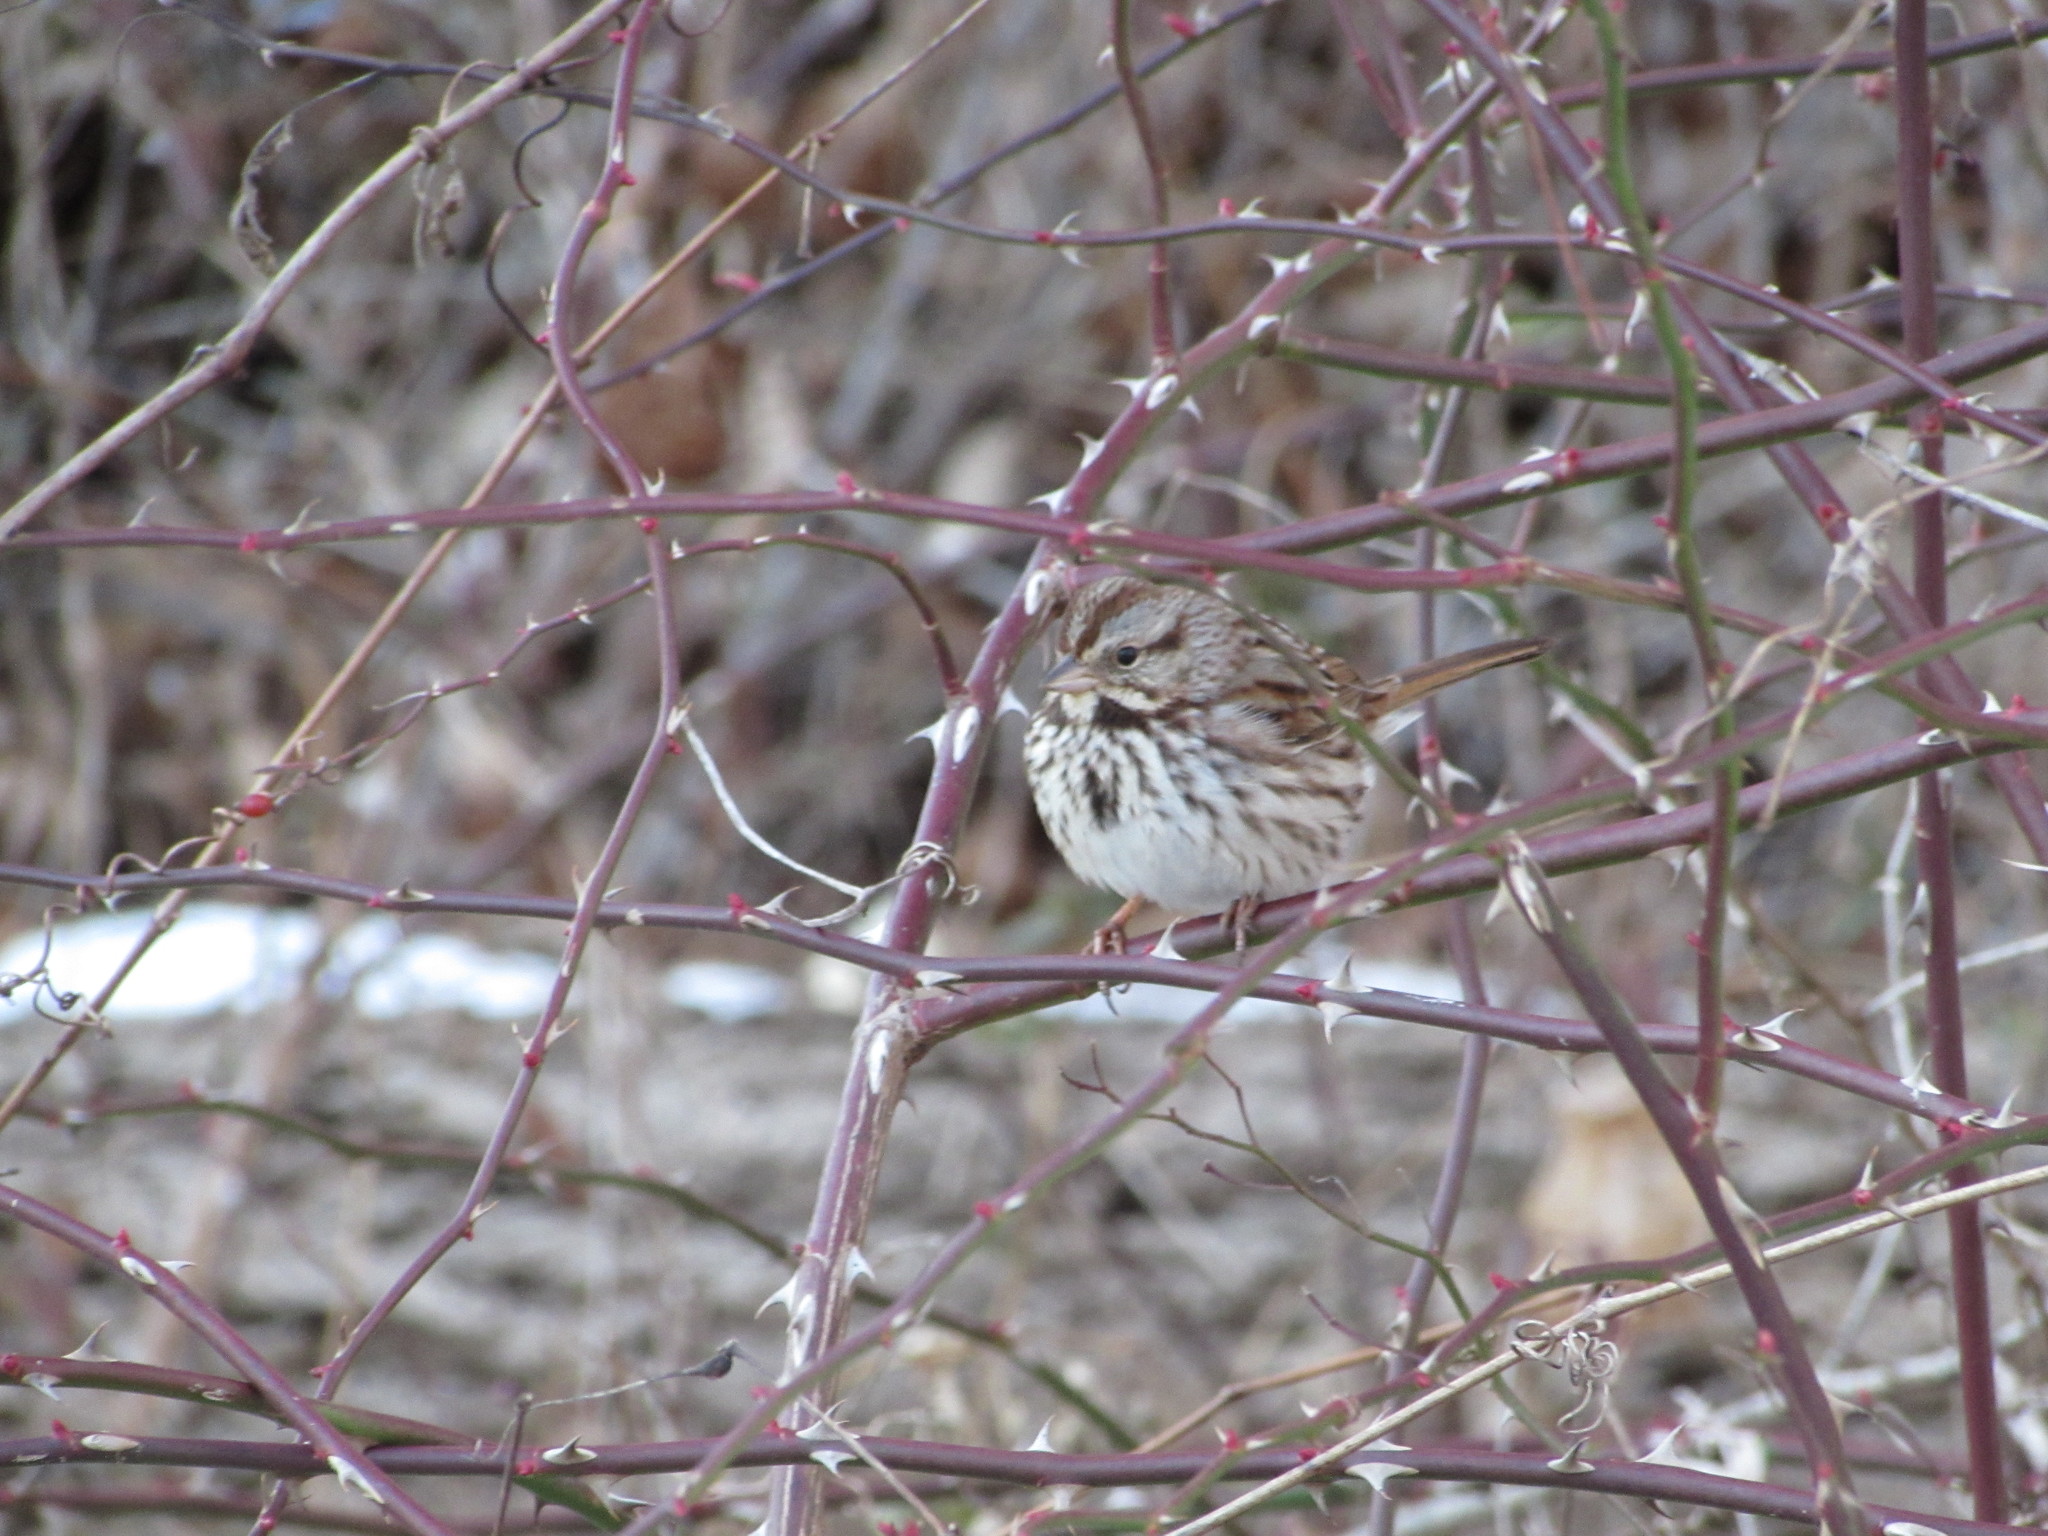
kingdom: Animalia
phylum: Chordata
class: Aves
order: Passeriformes
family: Passerellidae
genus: Melospiza
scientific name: Melospiza melodia
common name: Song sparrow
